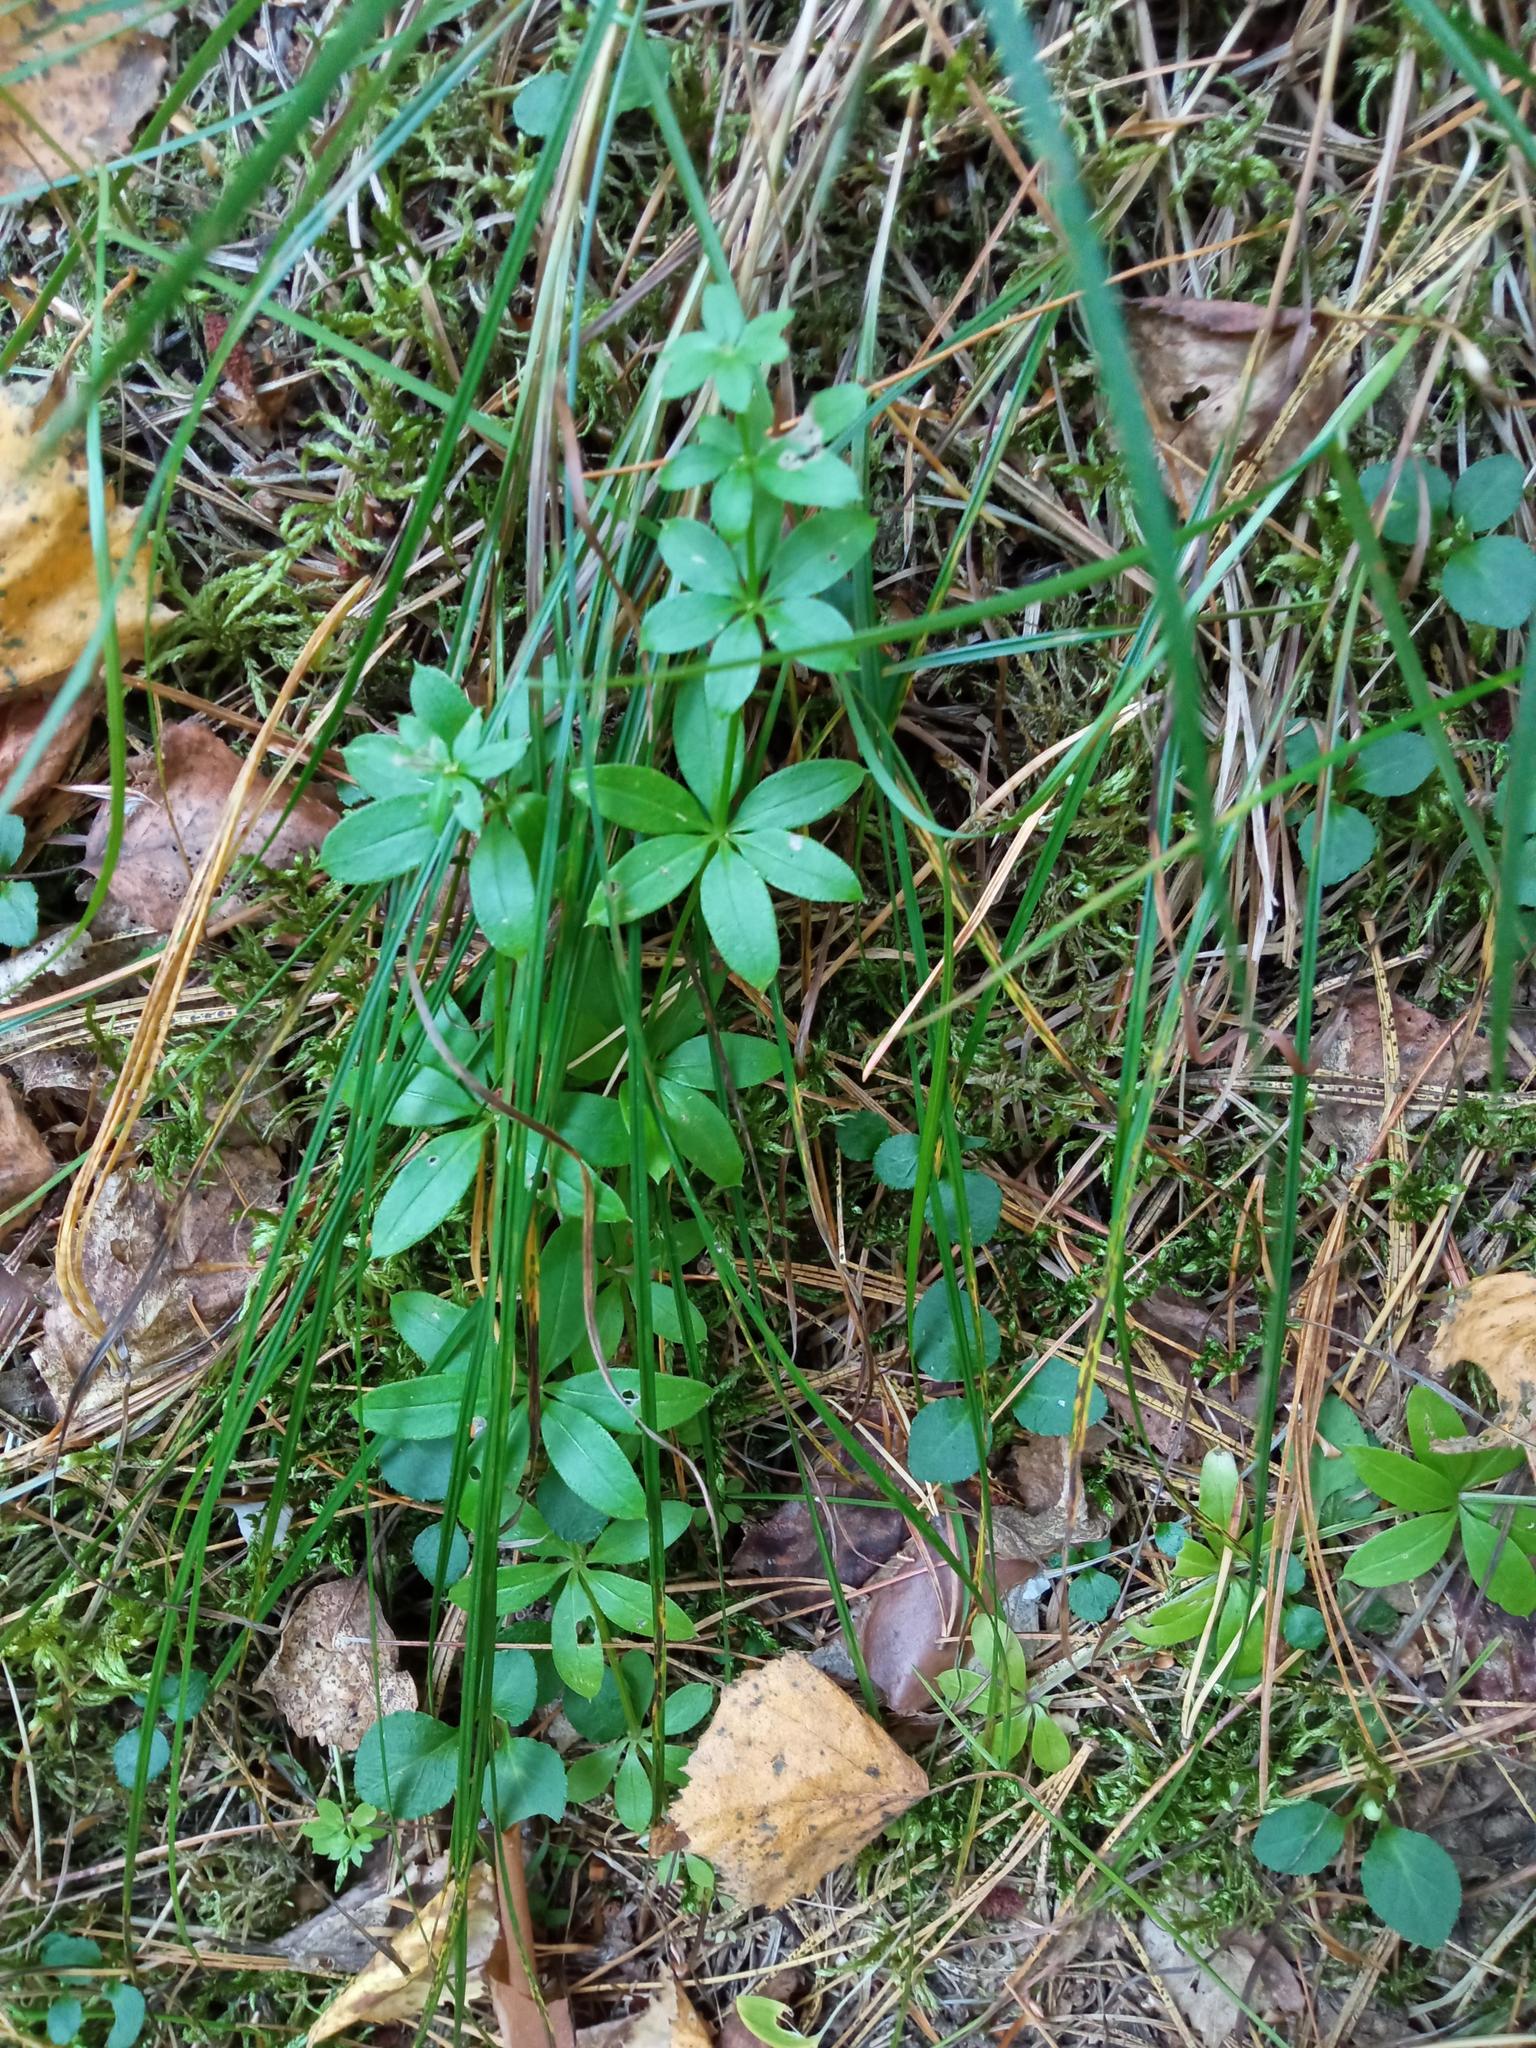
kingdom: Plantae
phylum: Tracheophyta
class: Magnoliopsida
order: Gentianales
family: Rubiaceae
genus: Galium
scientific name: Galium triflorum
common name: Fragrant bedstraw
